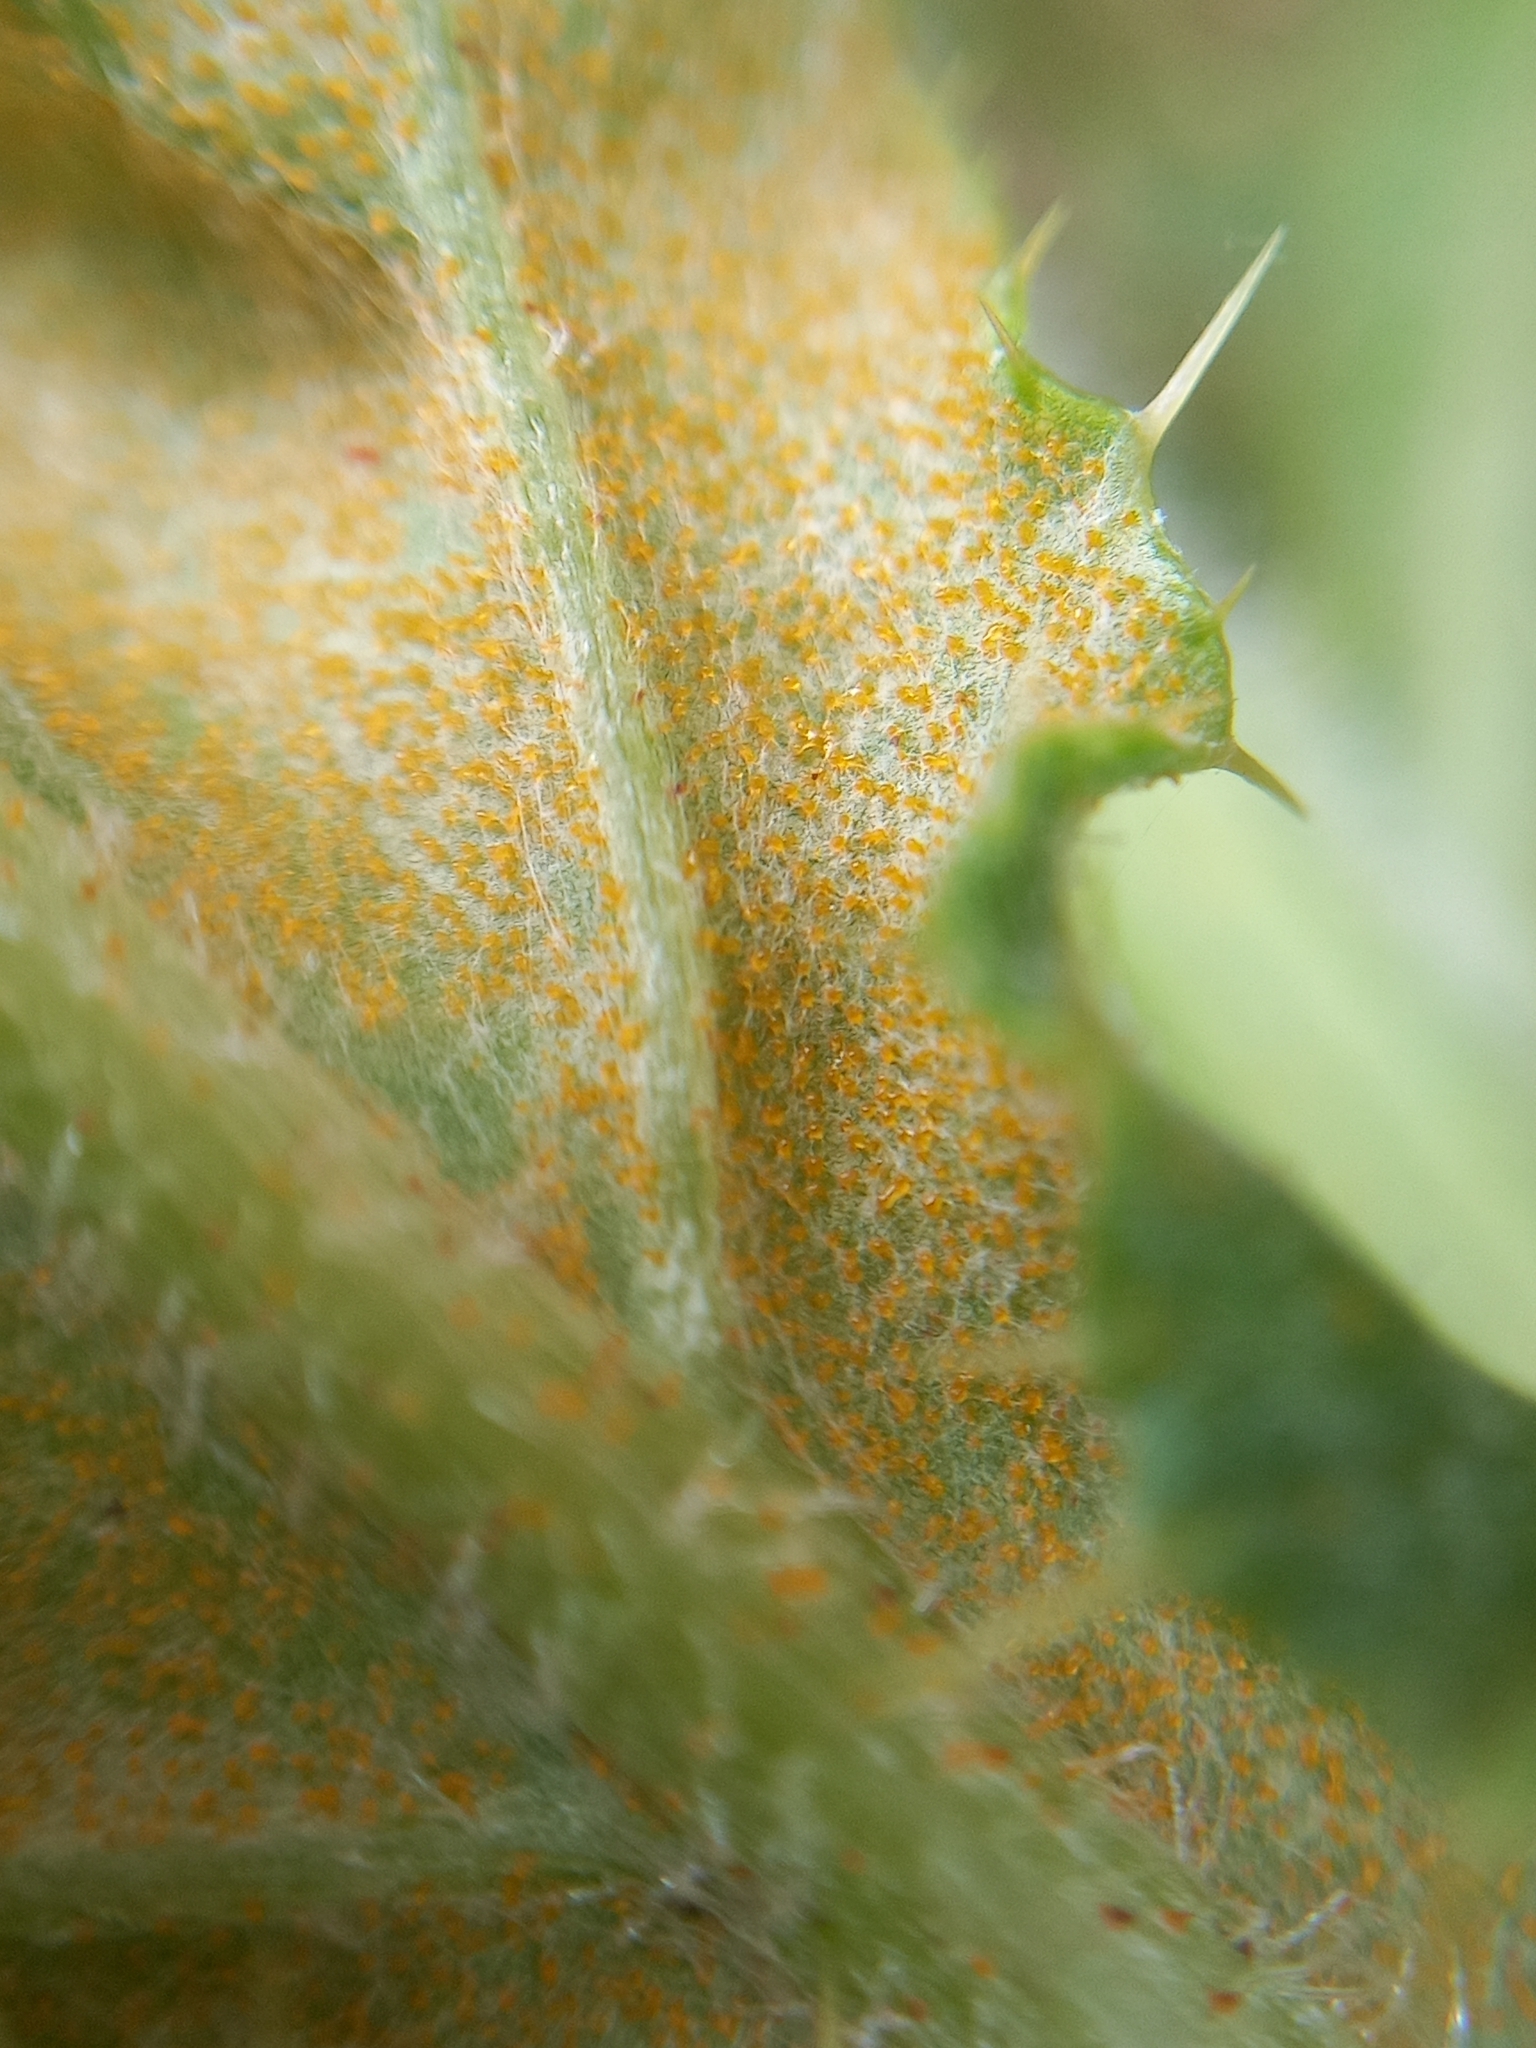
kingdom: Fungi
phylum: Basidiomycota
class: Pucciniomycetes
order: Pucciniales
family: Pucciniaceae
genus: Puccinia
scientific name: Puccinia suaveolens
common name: Thistle rust
